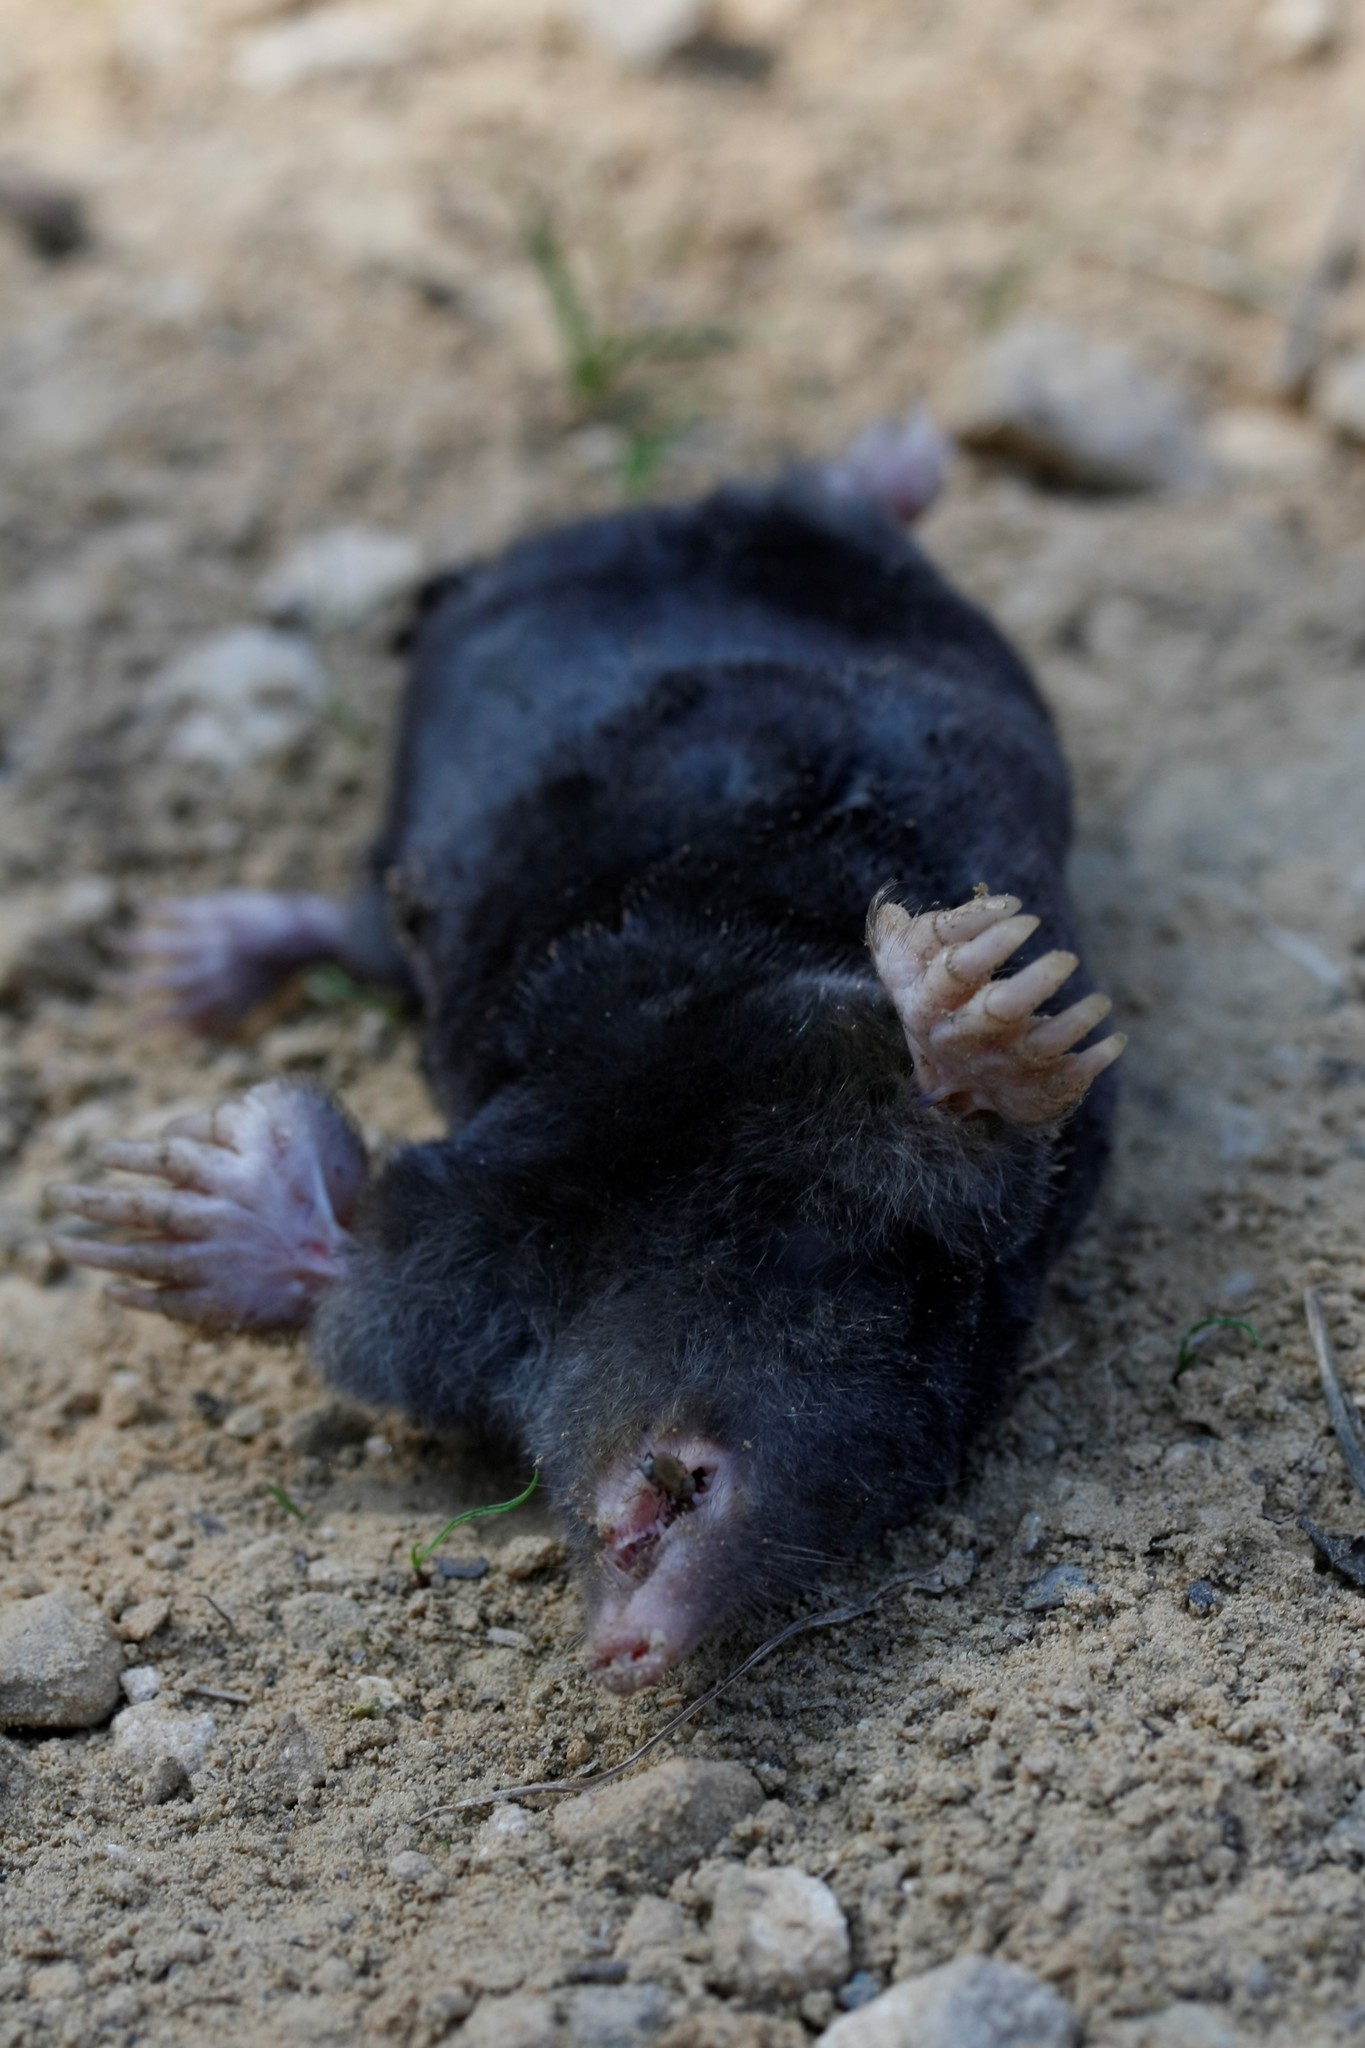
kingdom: Animalia
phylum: Chordata
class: Mammalia
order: Soricomorpha
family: Talpidae
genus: Talpa
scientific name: Talpa europaea
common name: European mole
